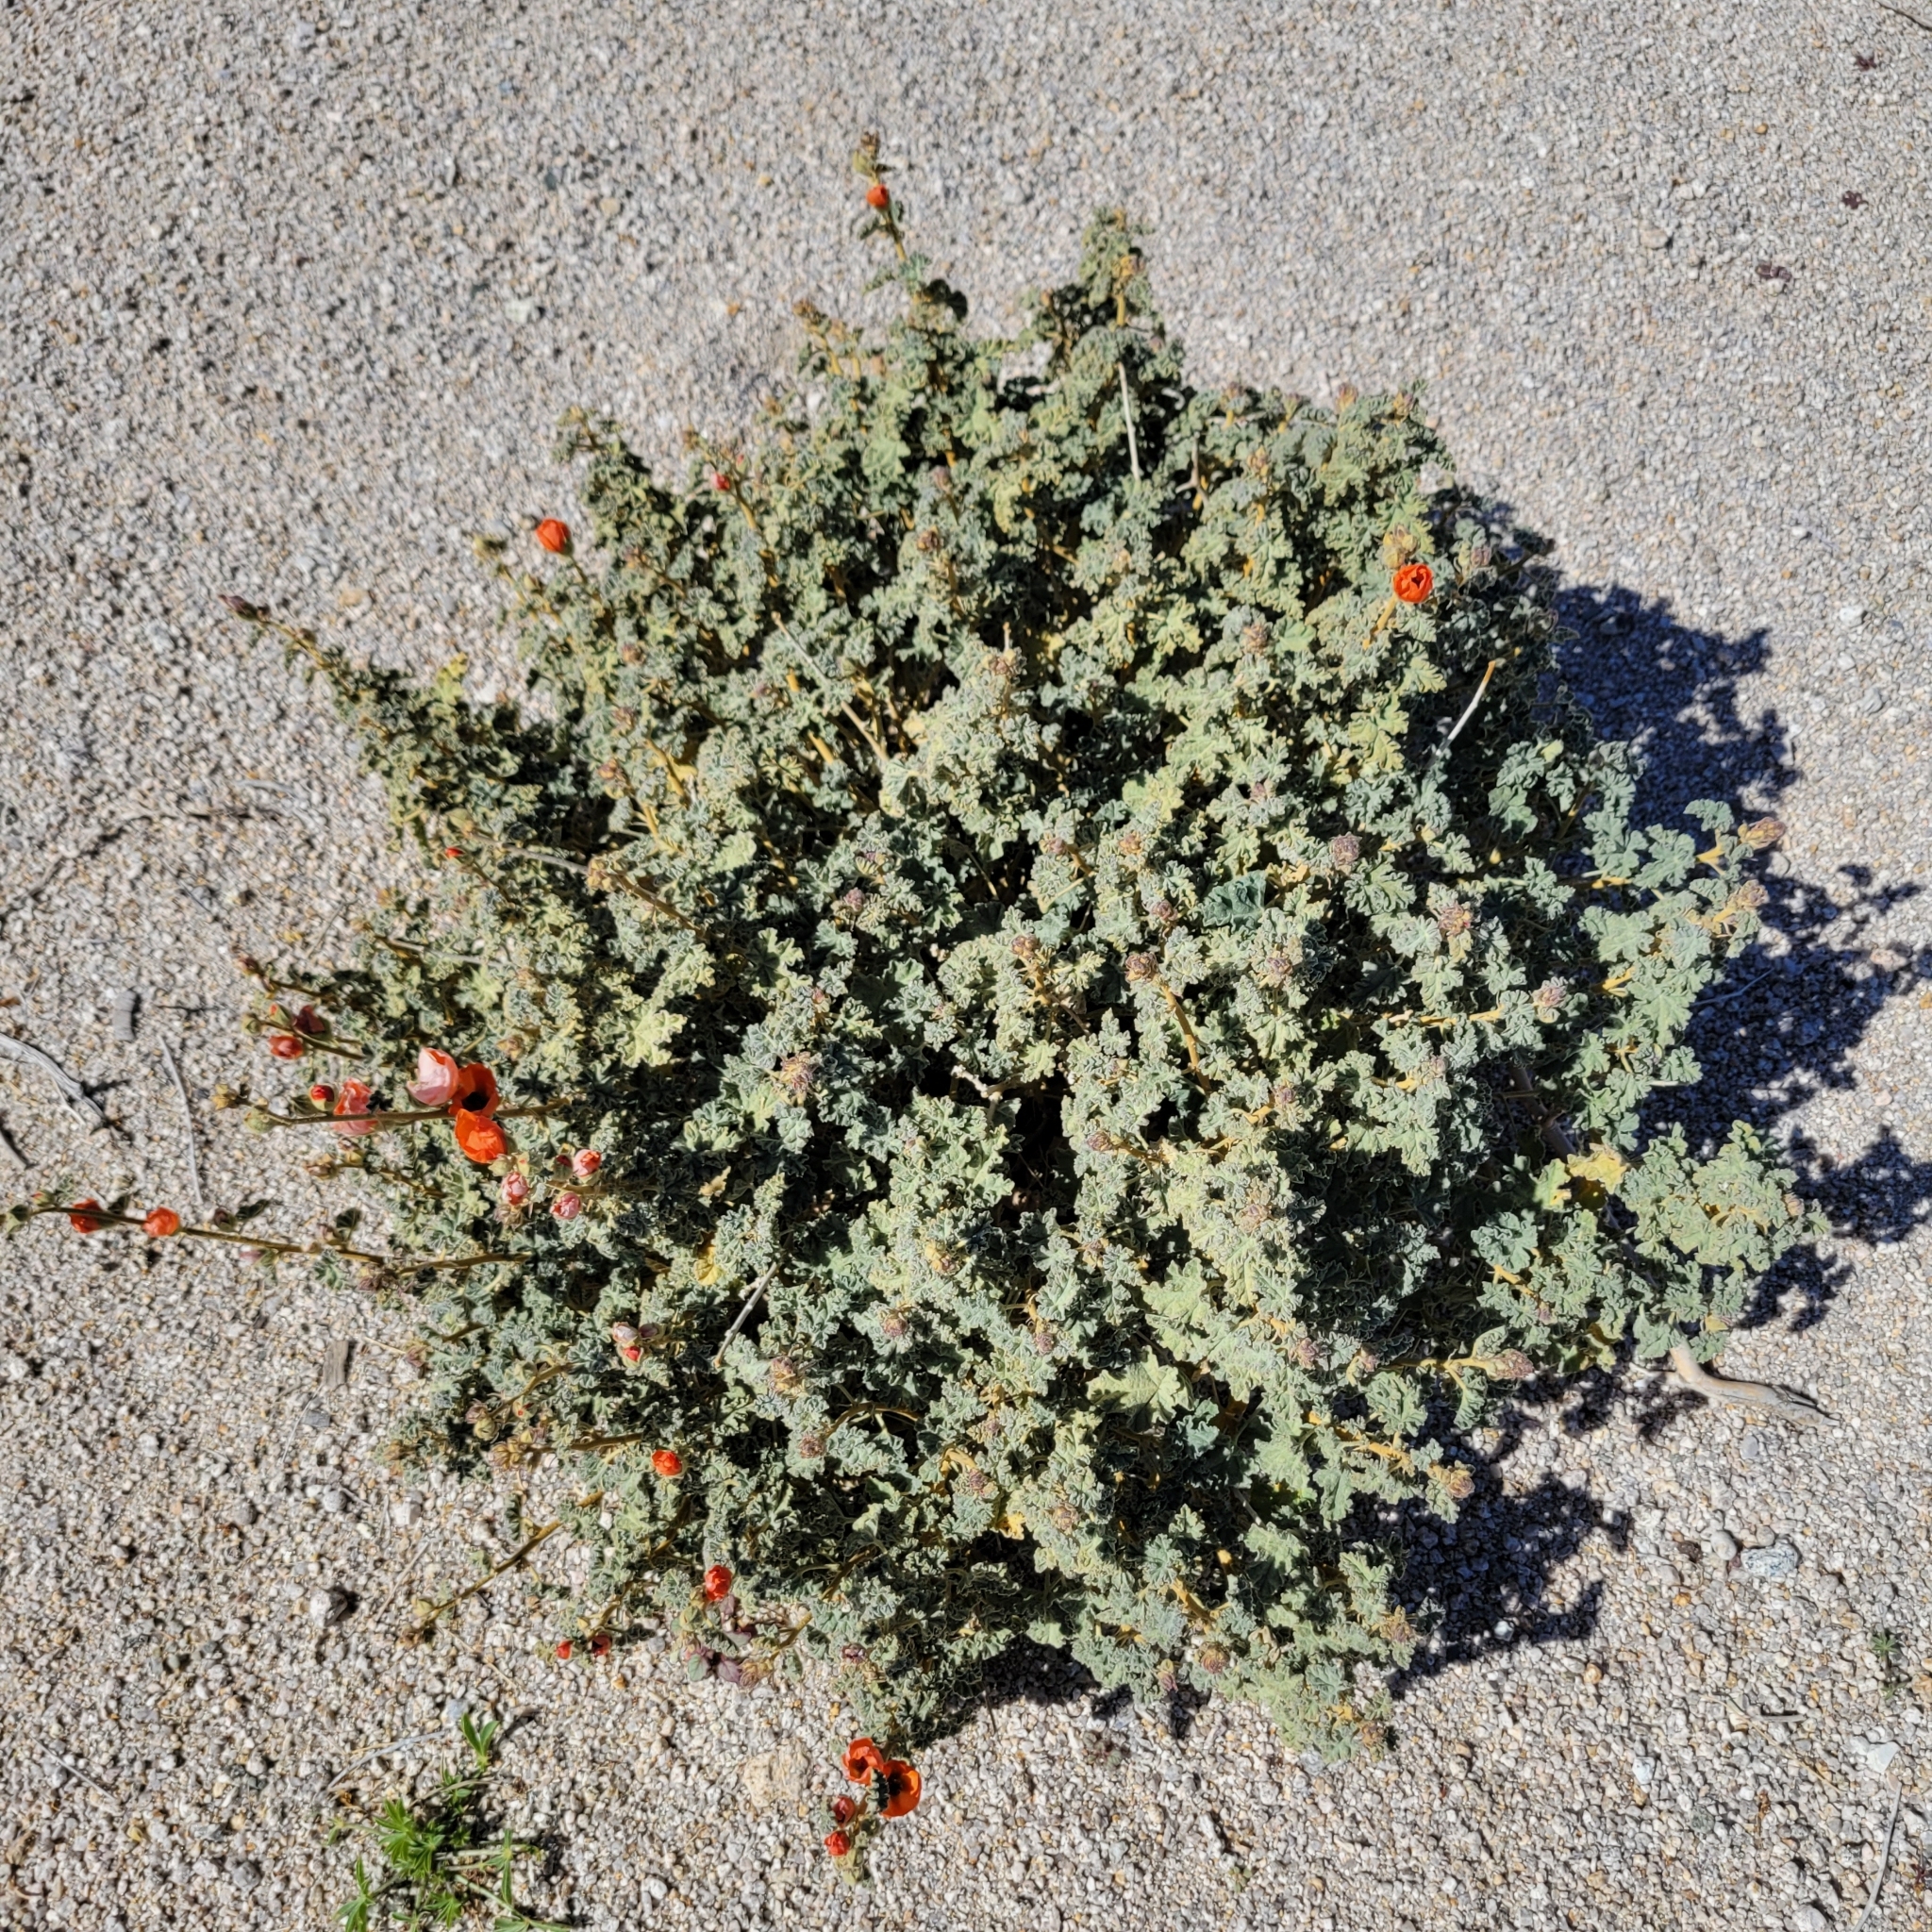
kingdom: Plantae
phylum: Tracheophyta
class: Magnoliopsida
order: Malvales
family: Malvaceae
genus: Sphaeralcea
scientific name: Sphaeralcea ambigua
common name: Apricot globe-mallow
